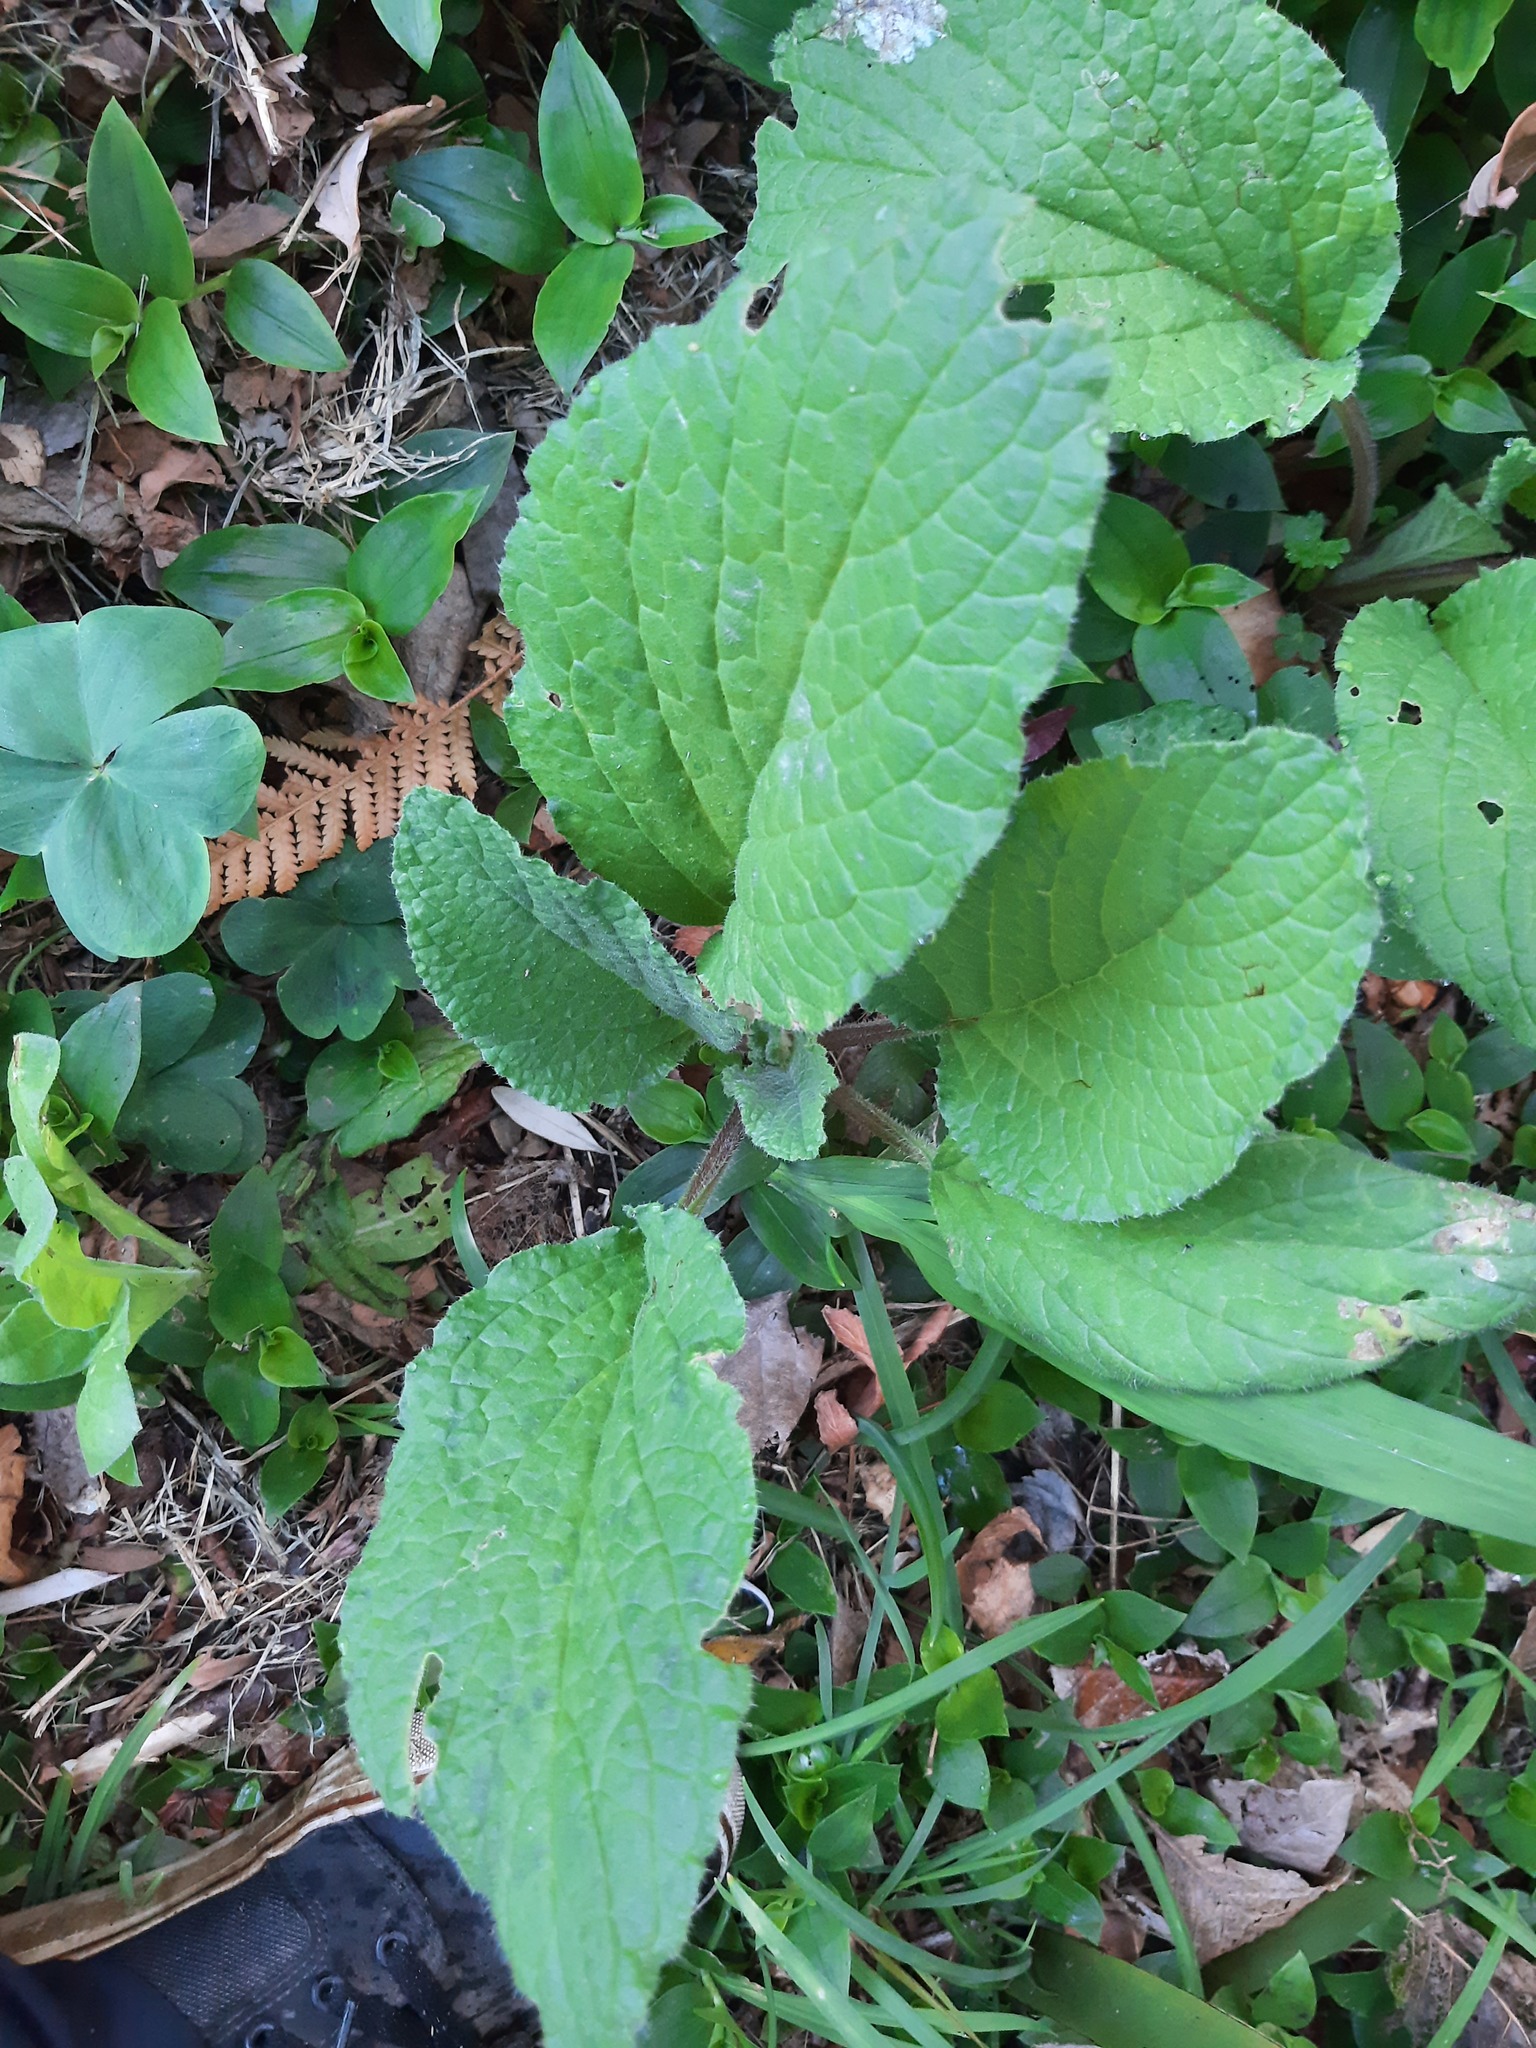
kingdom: Plantae
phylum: Tracheophyta
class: Magnoliopsida
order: Boraginales
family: Boraginaceae
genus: Borago
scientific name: Borago officinalis
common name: Borage
